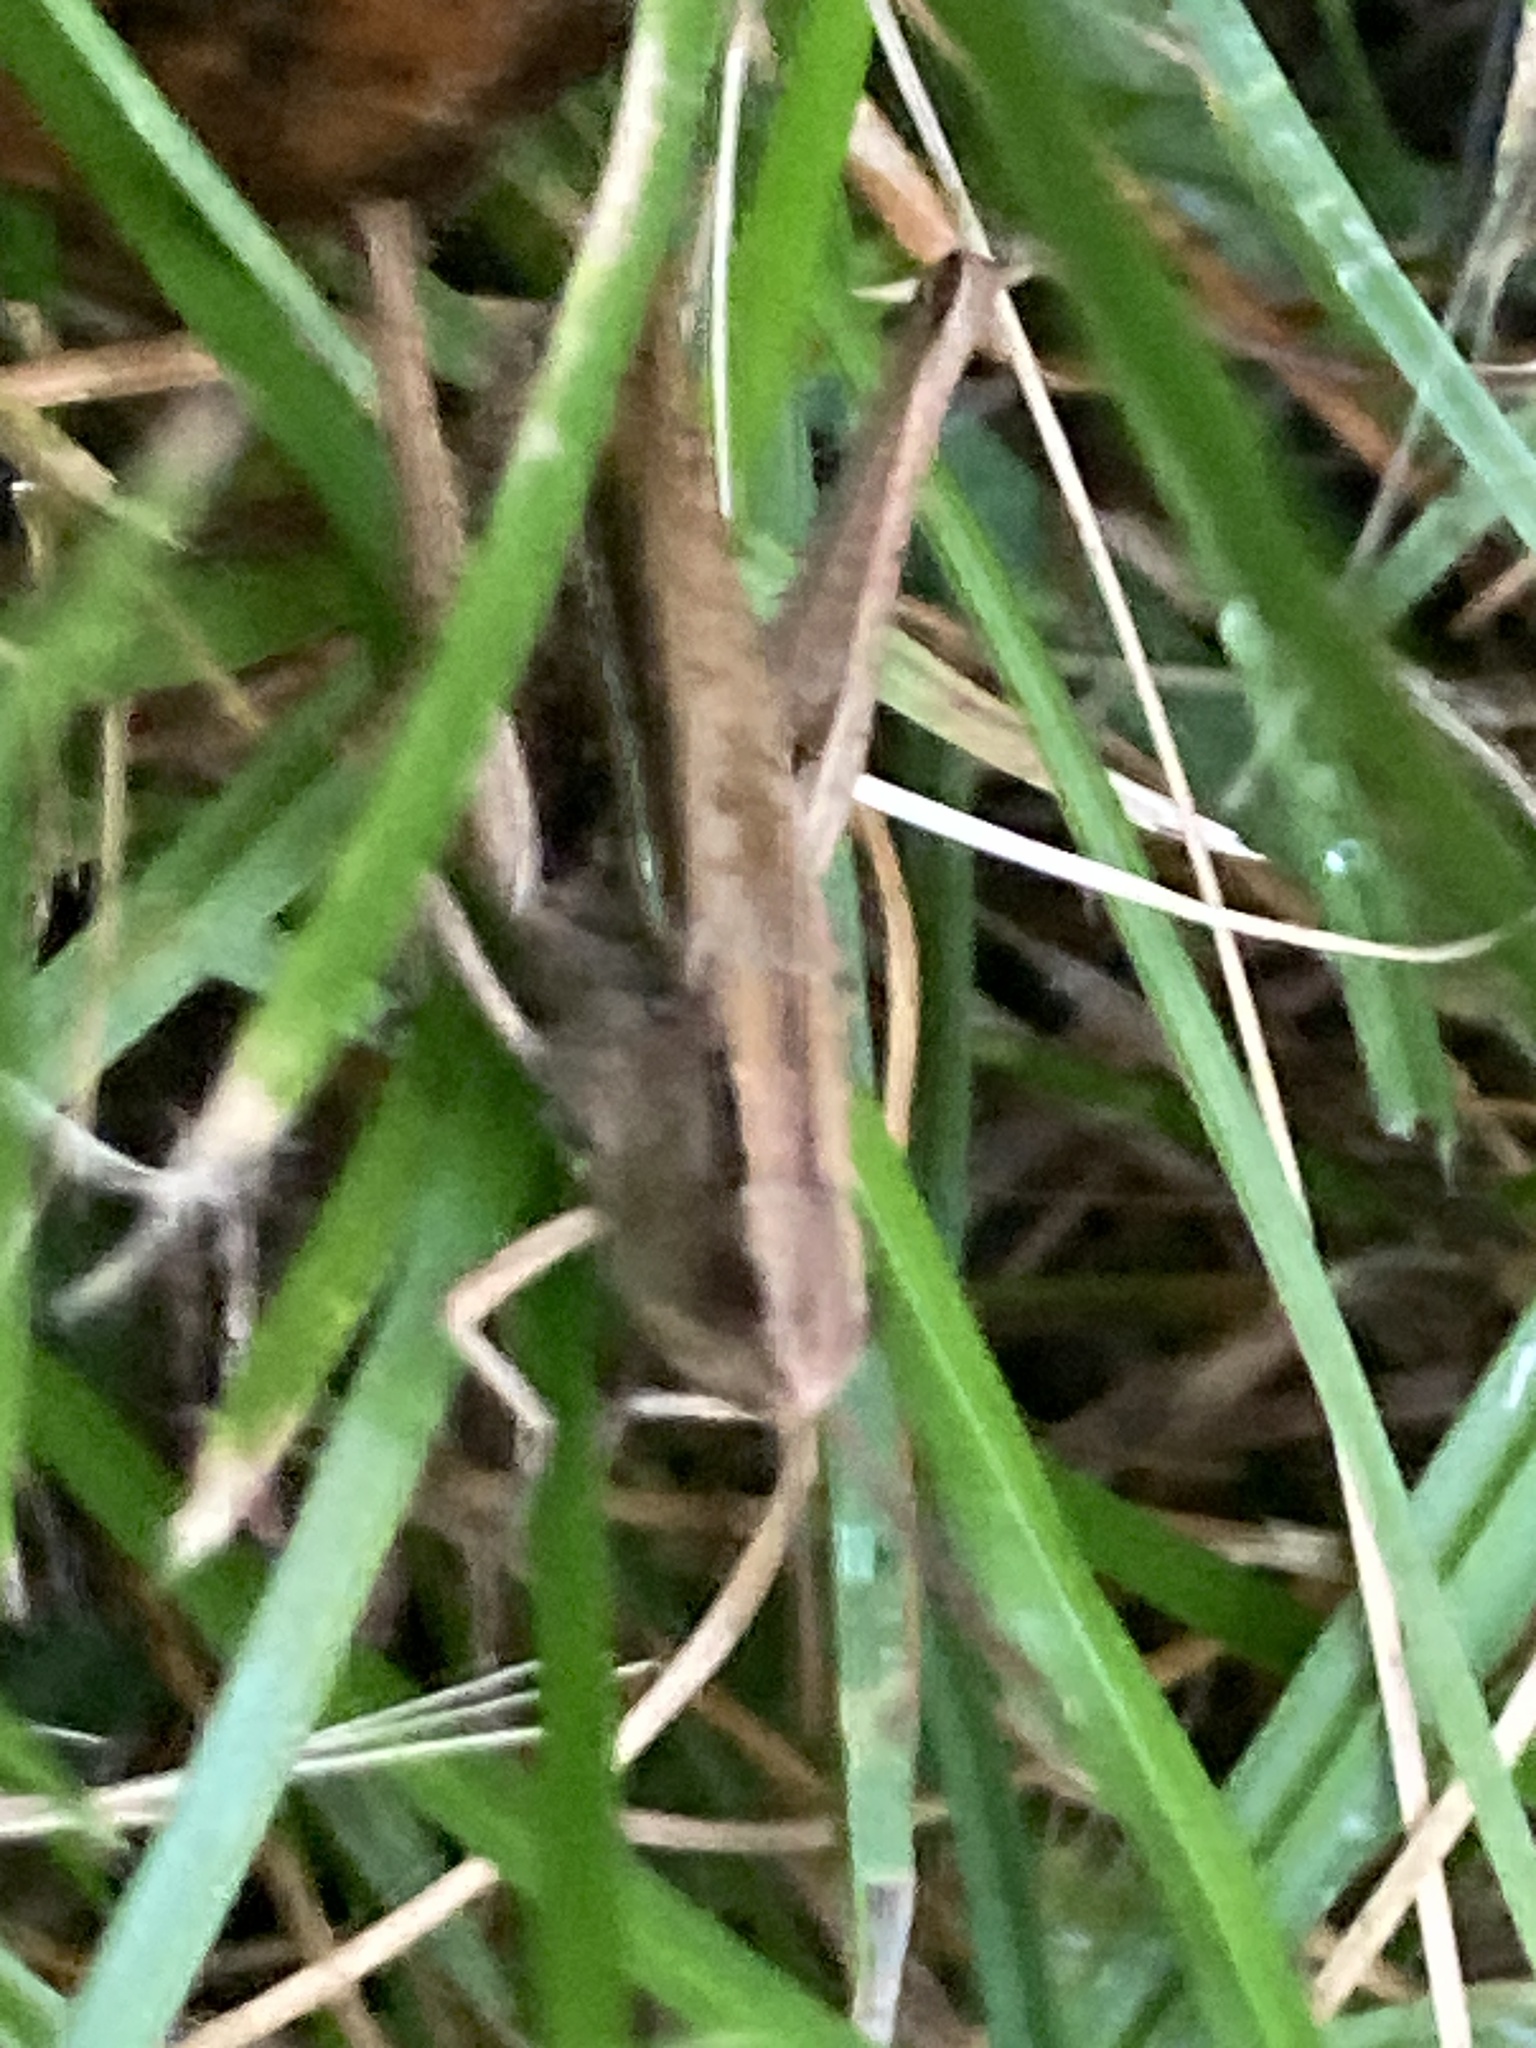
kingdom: Animalia
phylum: Arthropoda
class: Insecta
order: Orthoptera
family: Acrididae
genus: Chorthippus
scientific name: Chorthippus albomarginatus
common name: Lesser marsh grasshopper
